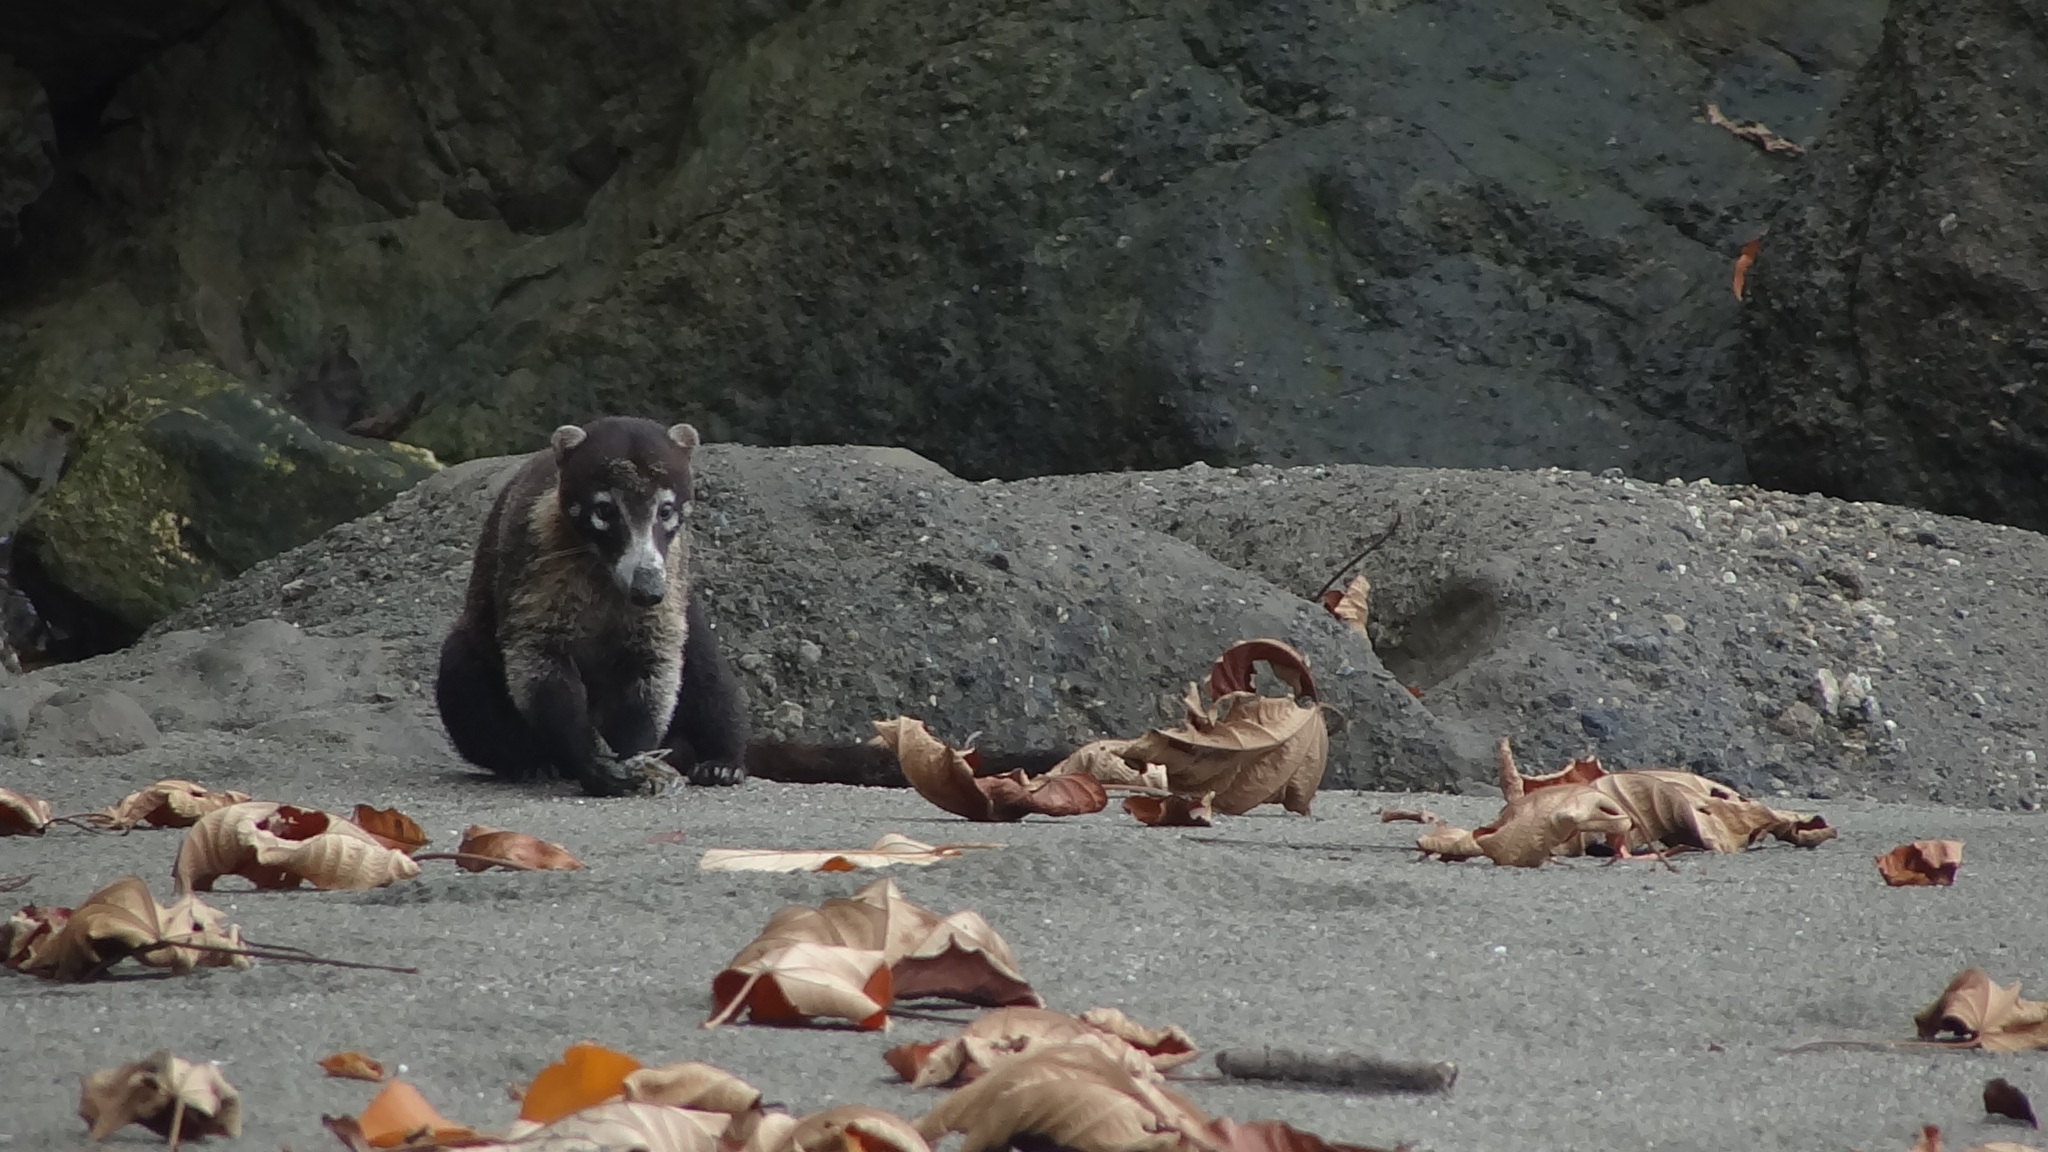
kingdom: Animalia
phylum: Chordata
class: Mammalia
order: Carnivora
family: Procyonidae
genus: Nasua
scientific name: Nasua narica
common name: White-nosed coati
